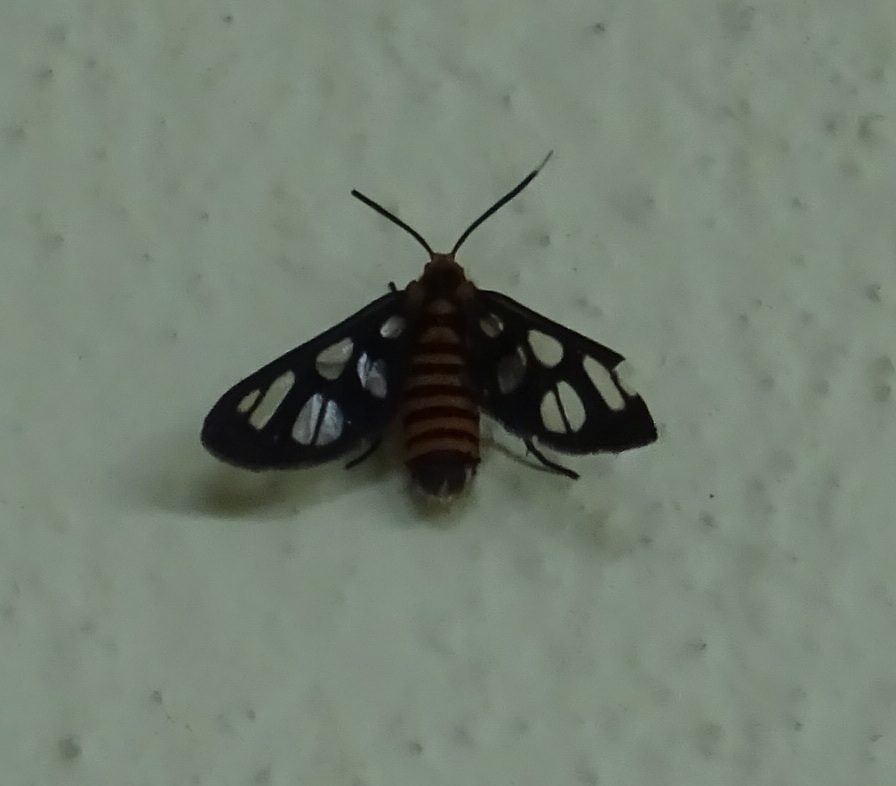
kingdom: Animalia
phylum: Arthropoda
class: Insecta
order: Lepidoptera
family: Erebidae
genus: Amata
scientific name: Amata huebneri
